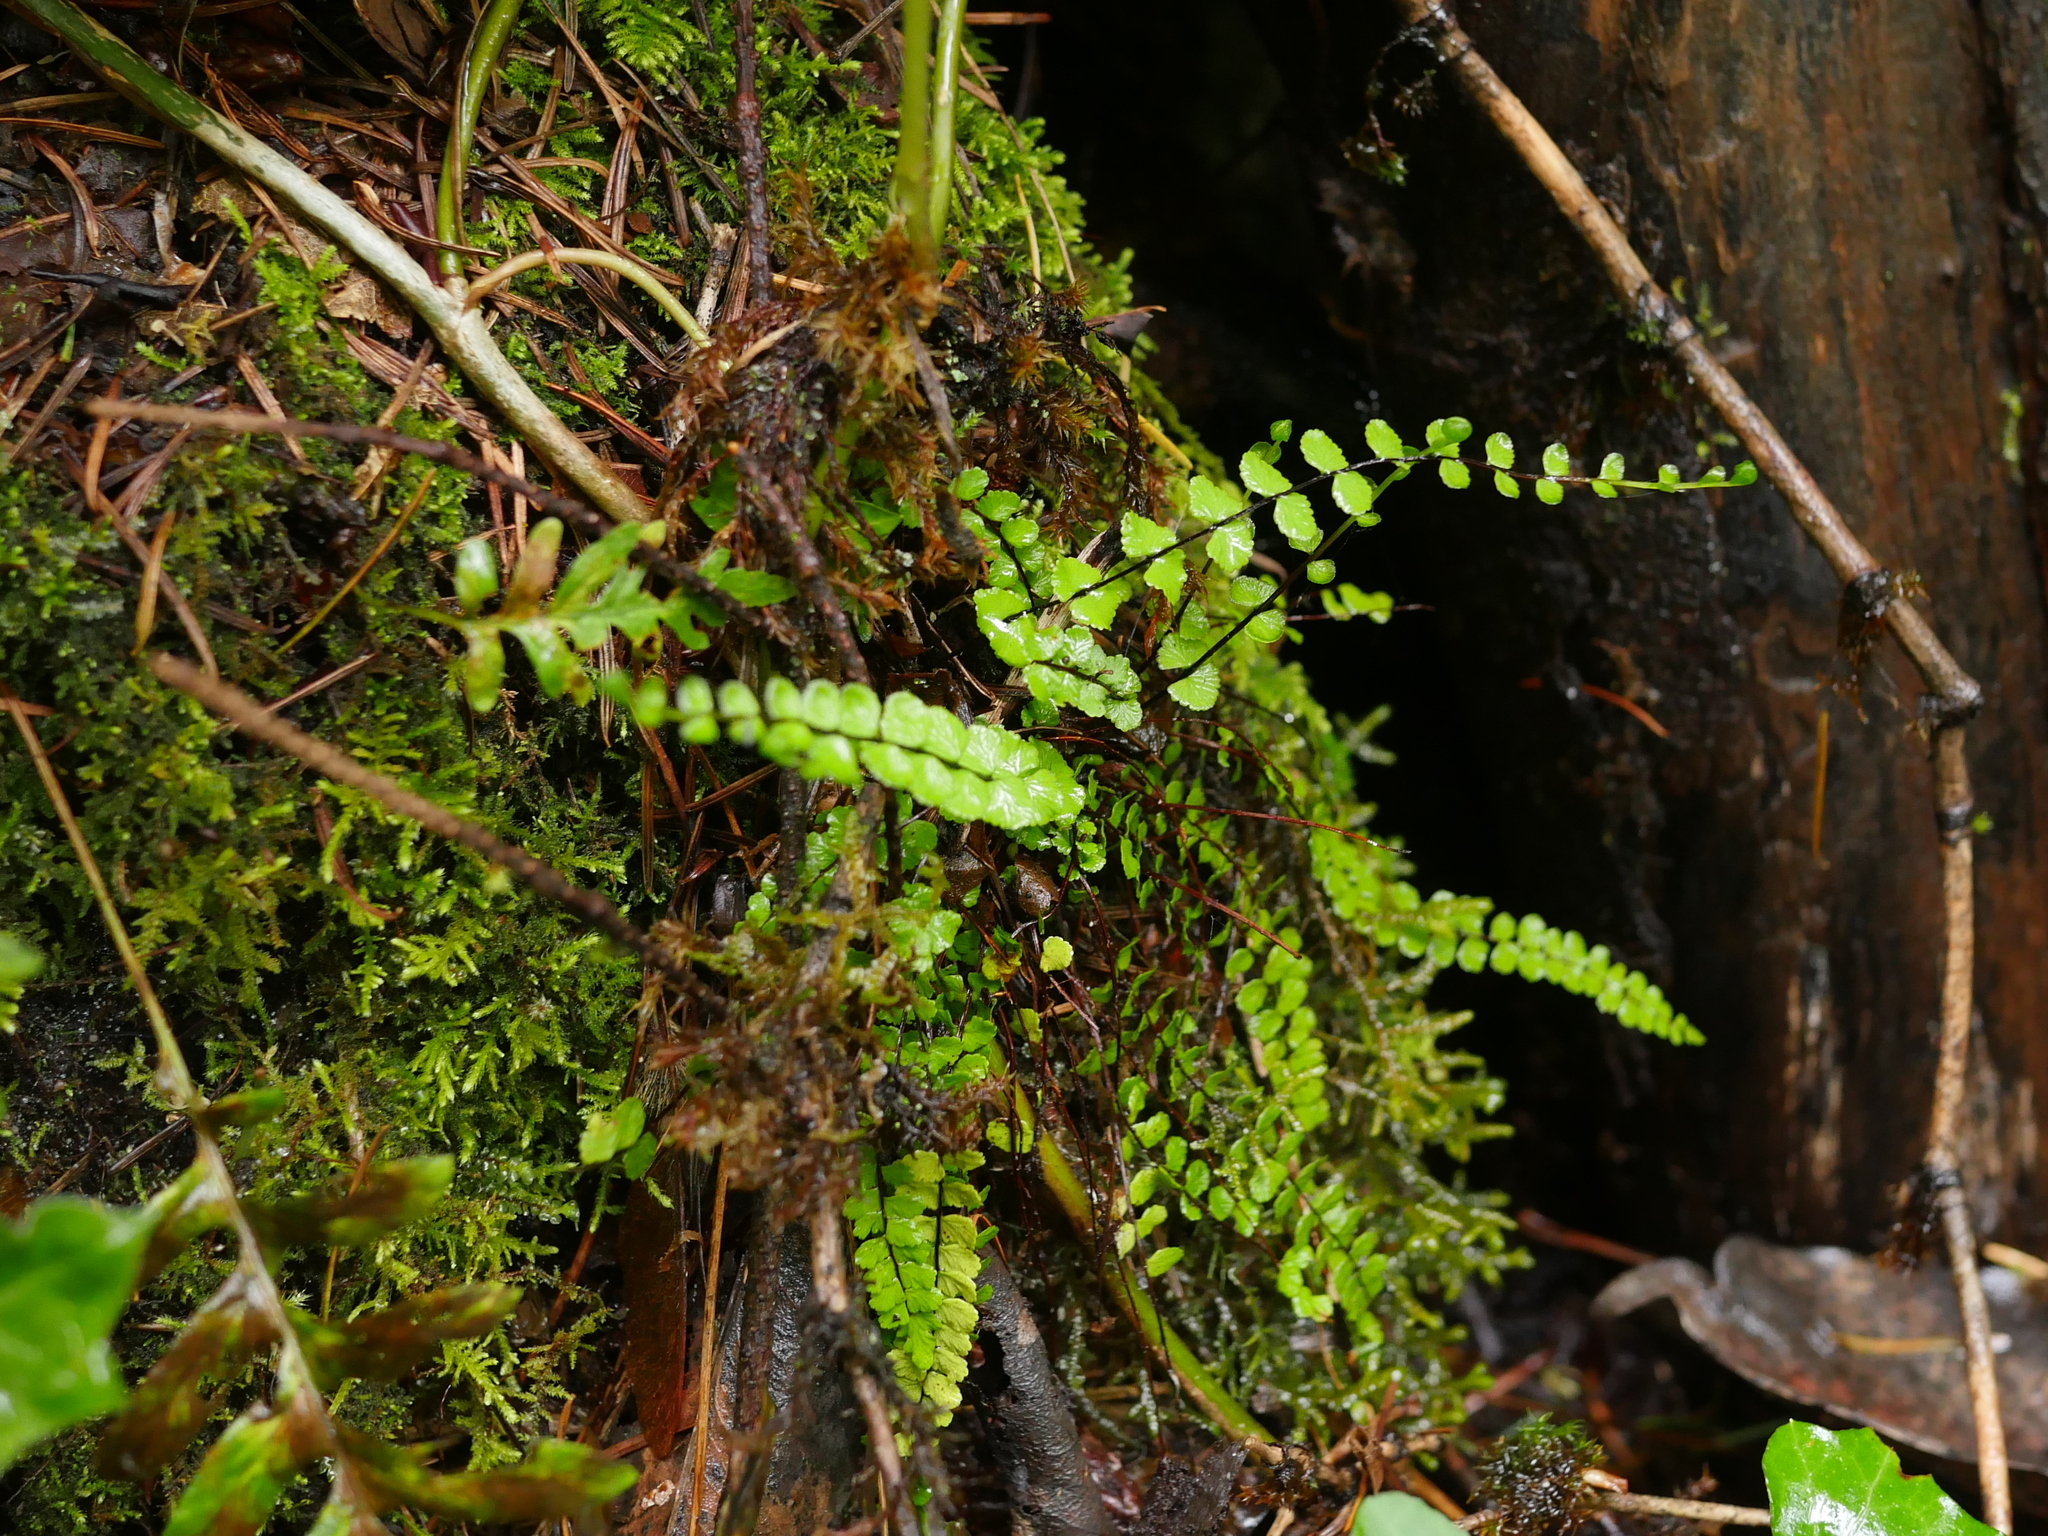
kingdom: Plantae
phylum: Tracheophyta
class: Polypodiopsida
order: Polypodiales
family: Aspleniaceae
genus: Asplenium
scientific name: Asplenium trichomanes
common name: Maidenhair spleenwort
